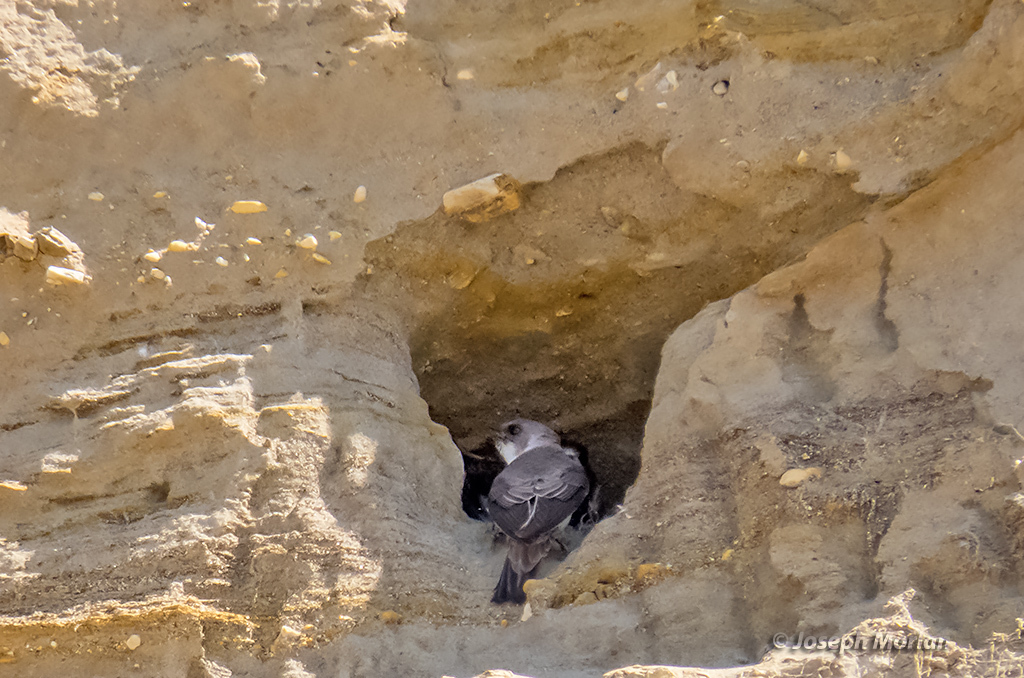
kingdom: Animalia
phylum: Chordata
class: Aves
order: Passeriformes
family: Hirundinidae
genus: Riparia
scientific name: Riparia riparia
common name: Sand martin
